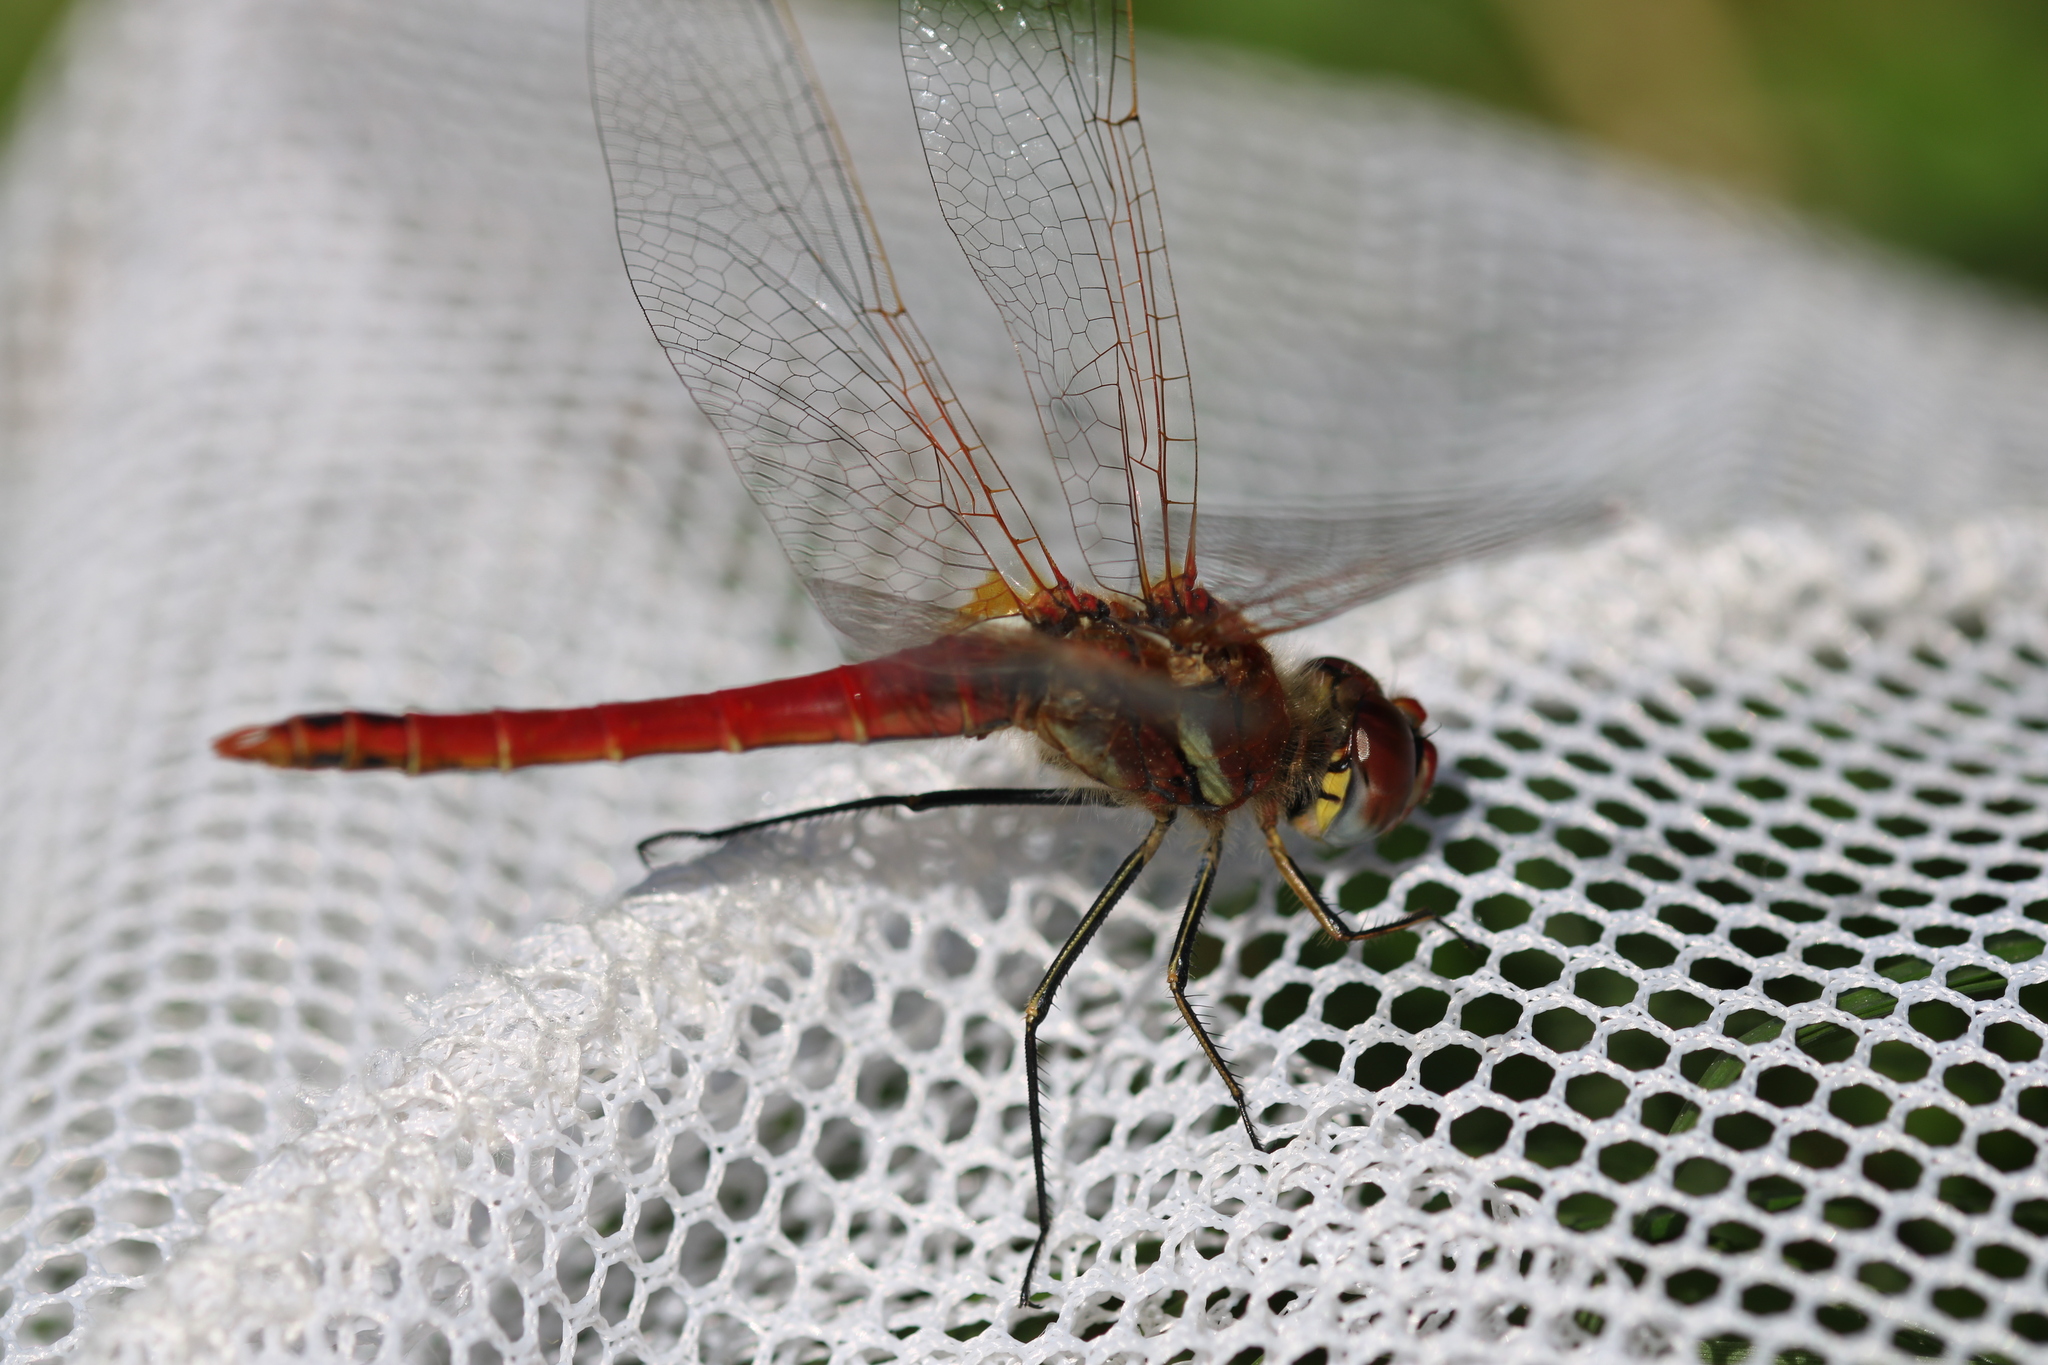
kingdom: Animalia
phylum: Arthropoda
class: Insecta
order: Odonata
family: Libellulidae
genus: Sympetrum
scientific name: Sympetrum fonscolombii
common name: Red-veined darter
